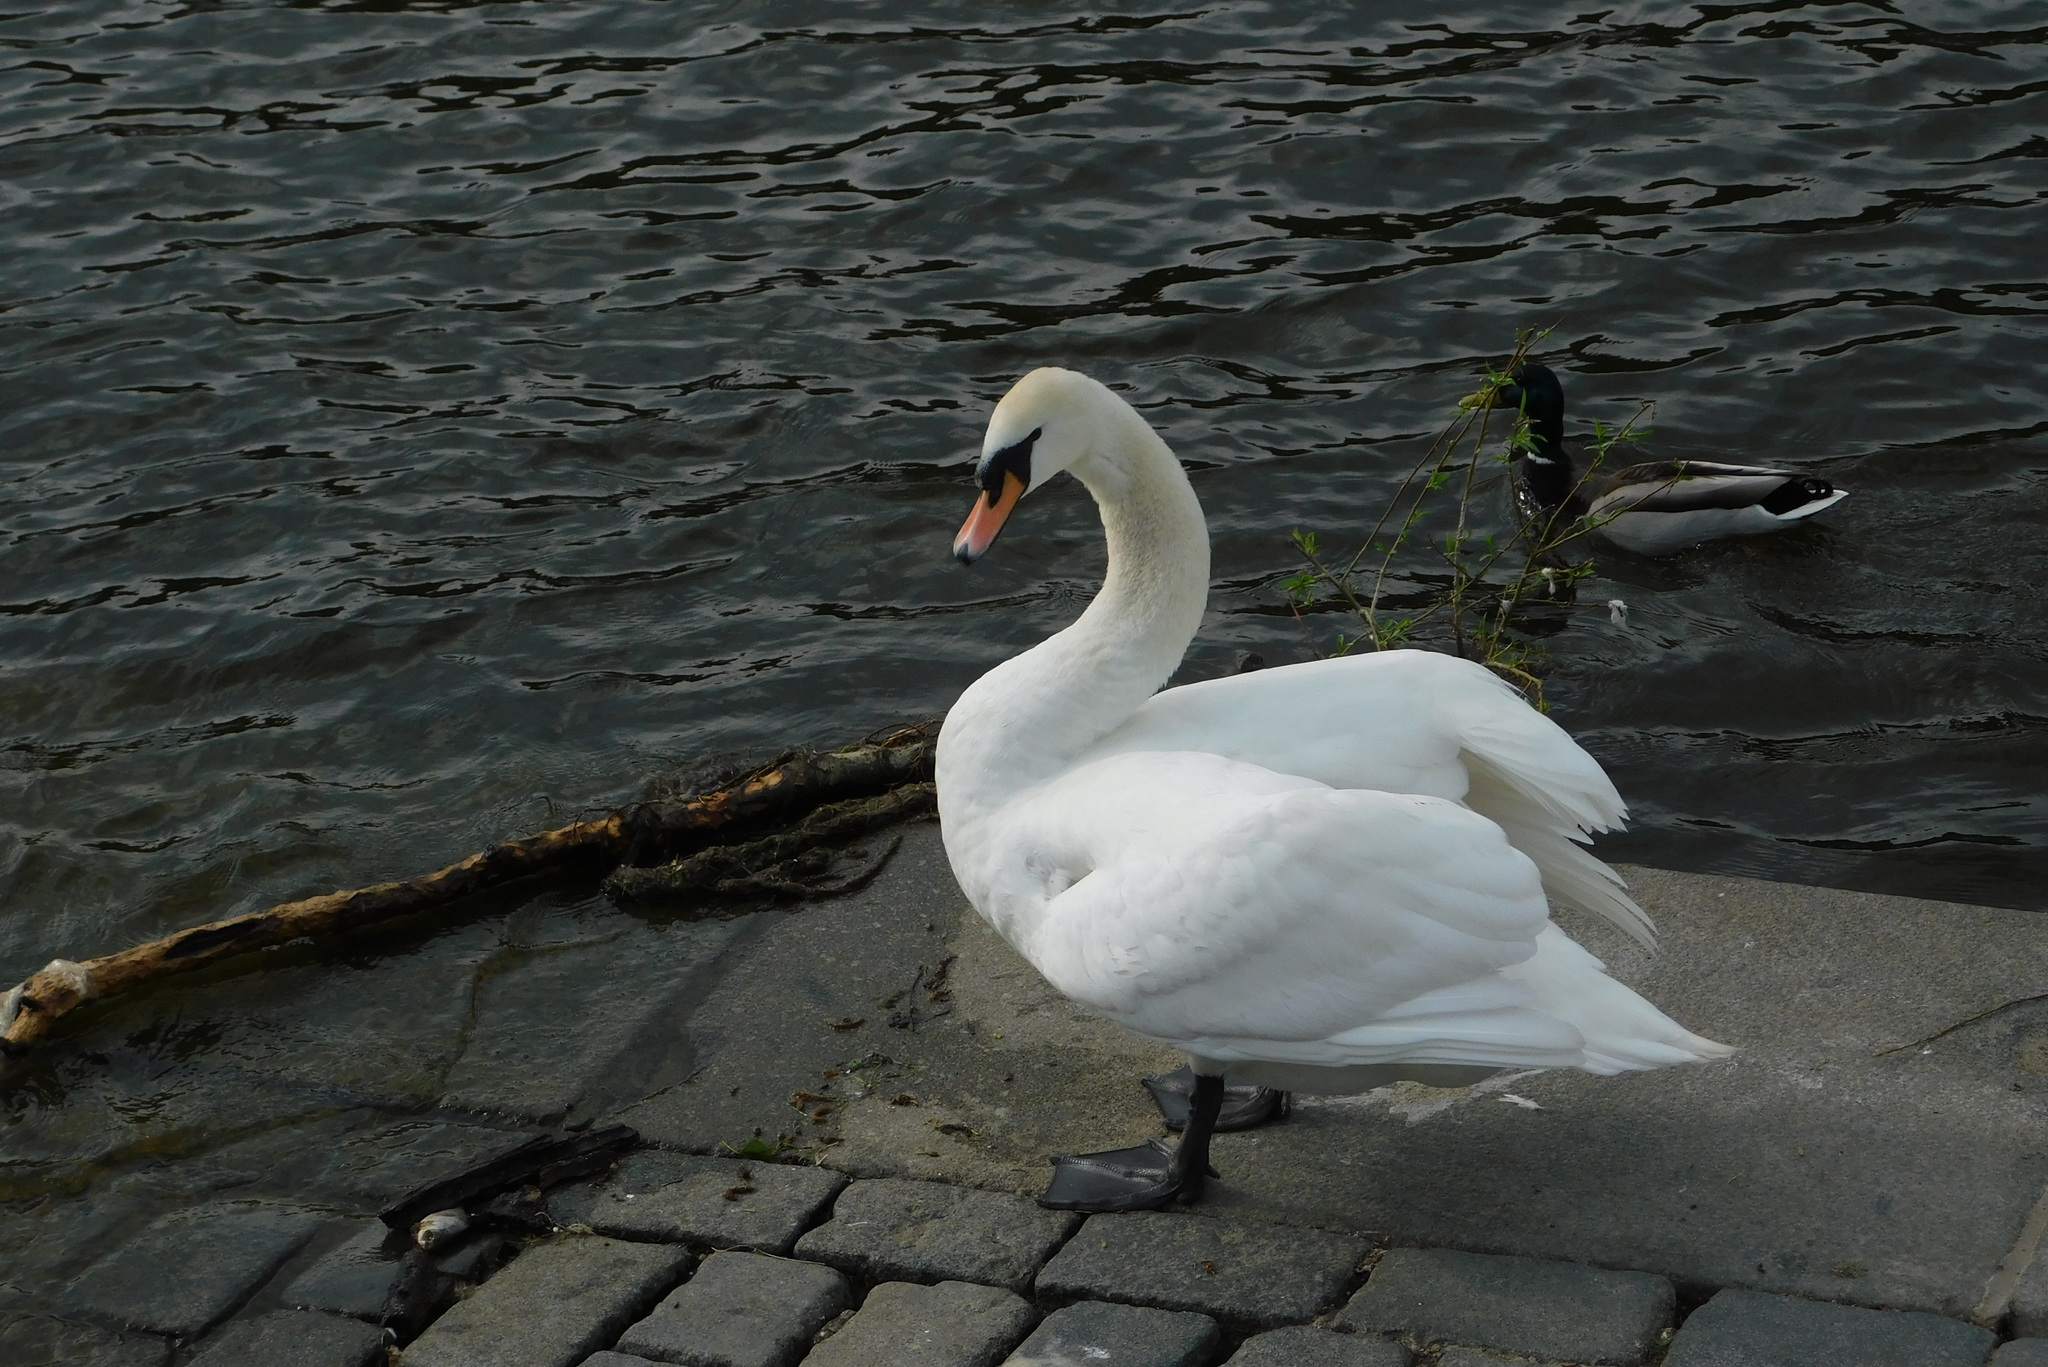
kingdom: Animalia
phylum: Chordata
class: Aves
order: Anseriformes
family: Anatidae
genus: Cygnus
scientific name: Cygnus olor
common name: Mute swan
